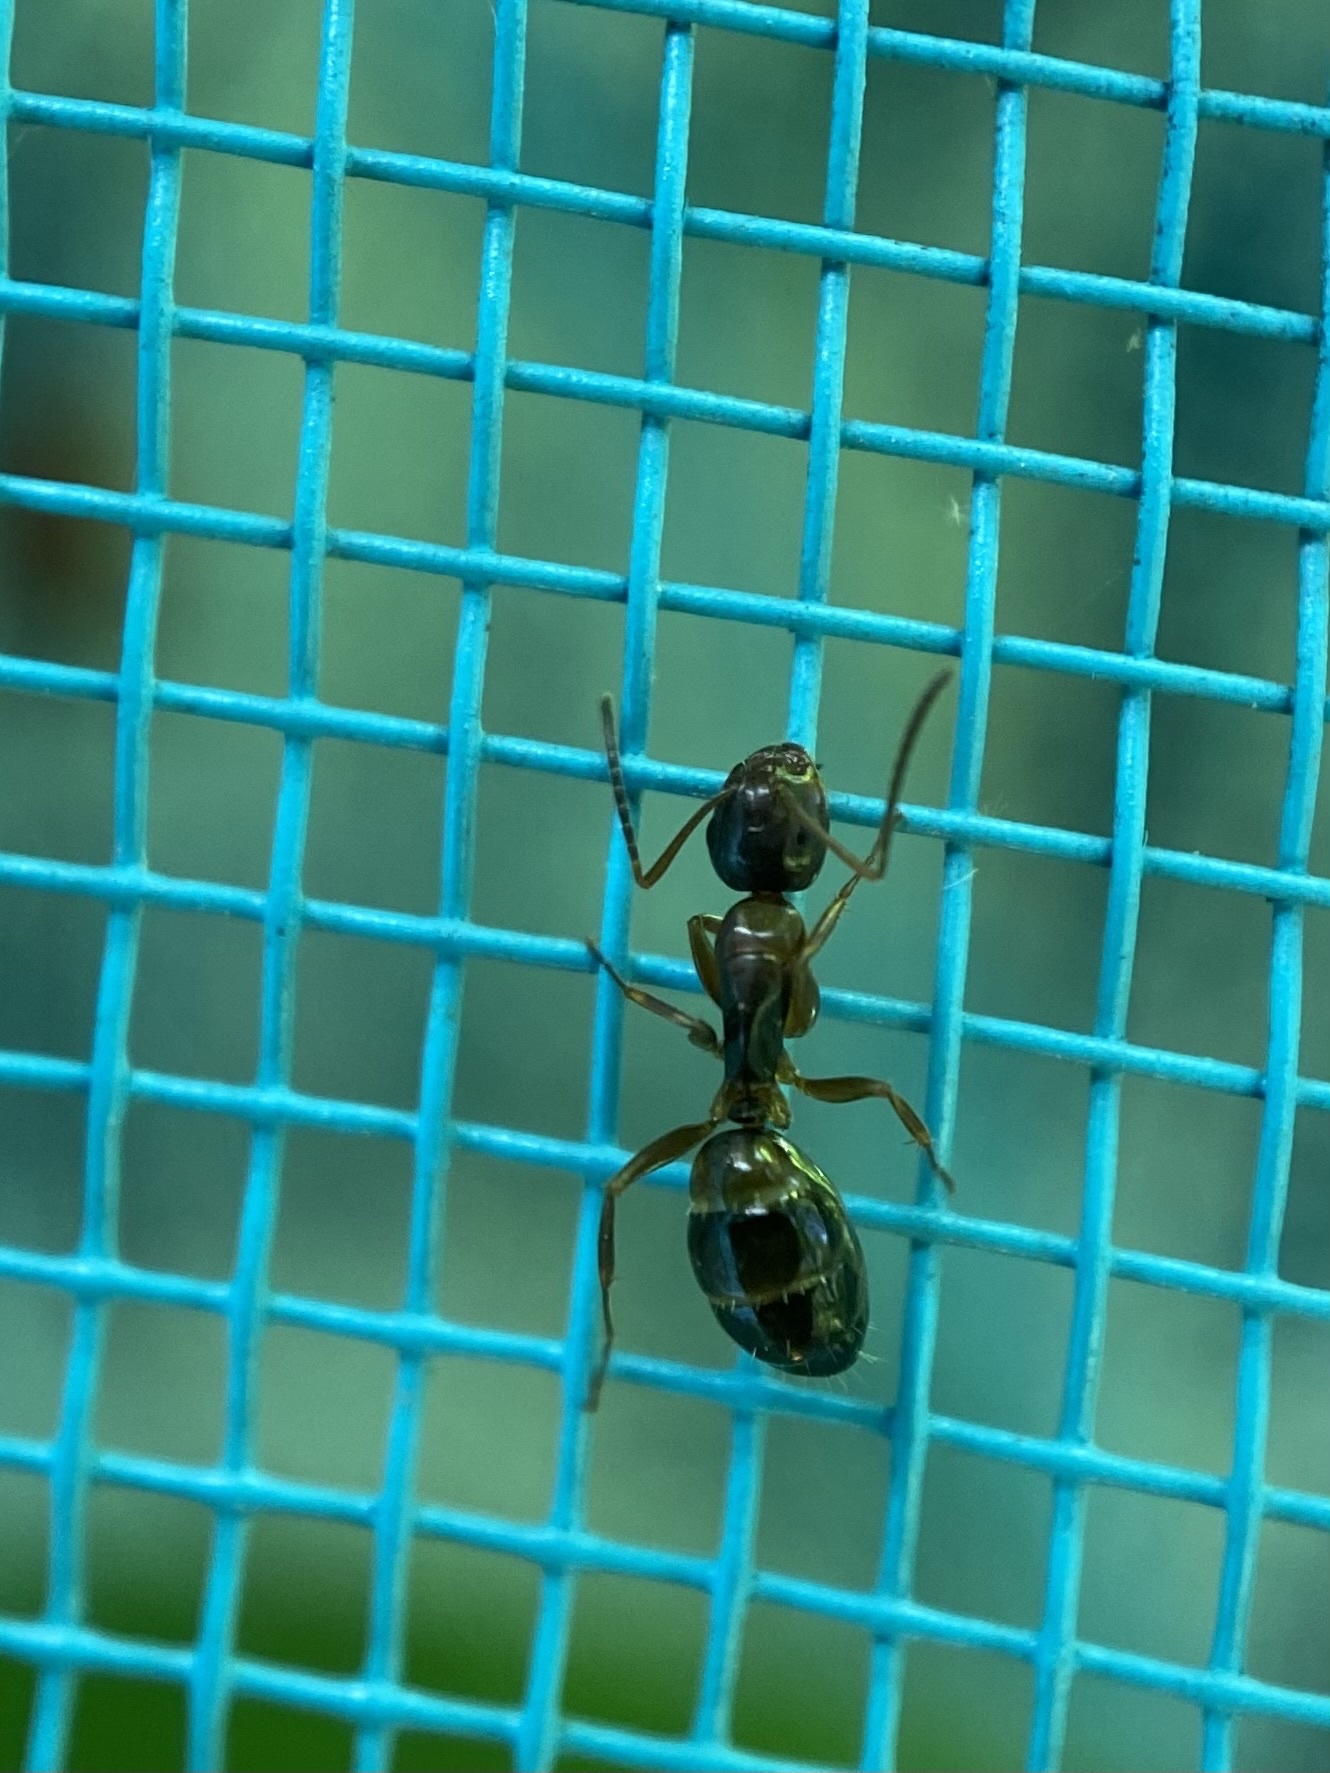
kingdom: Animalia
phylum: Arthropoda
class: Insecta
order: Hymenoptera
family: Formicidae
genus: Camponotus
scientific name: Camponotus nearcticus
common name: Smaller carpenter ant
